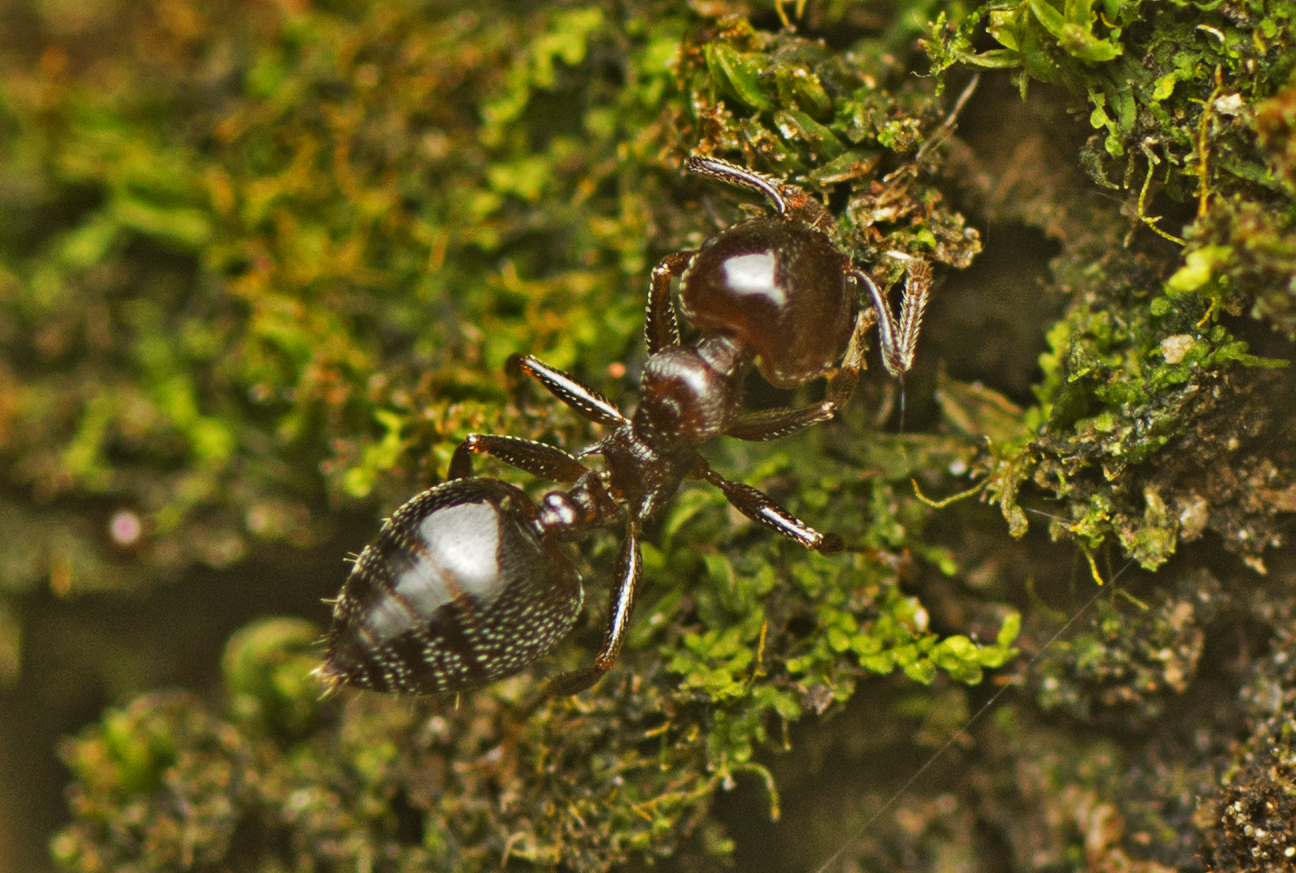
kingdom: Animalia
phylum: Arthropoda
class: Insecta
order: Hymenoptera
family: Formicidae
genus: Crematogaster
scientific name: Crematogaster cornigera
